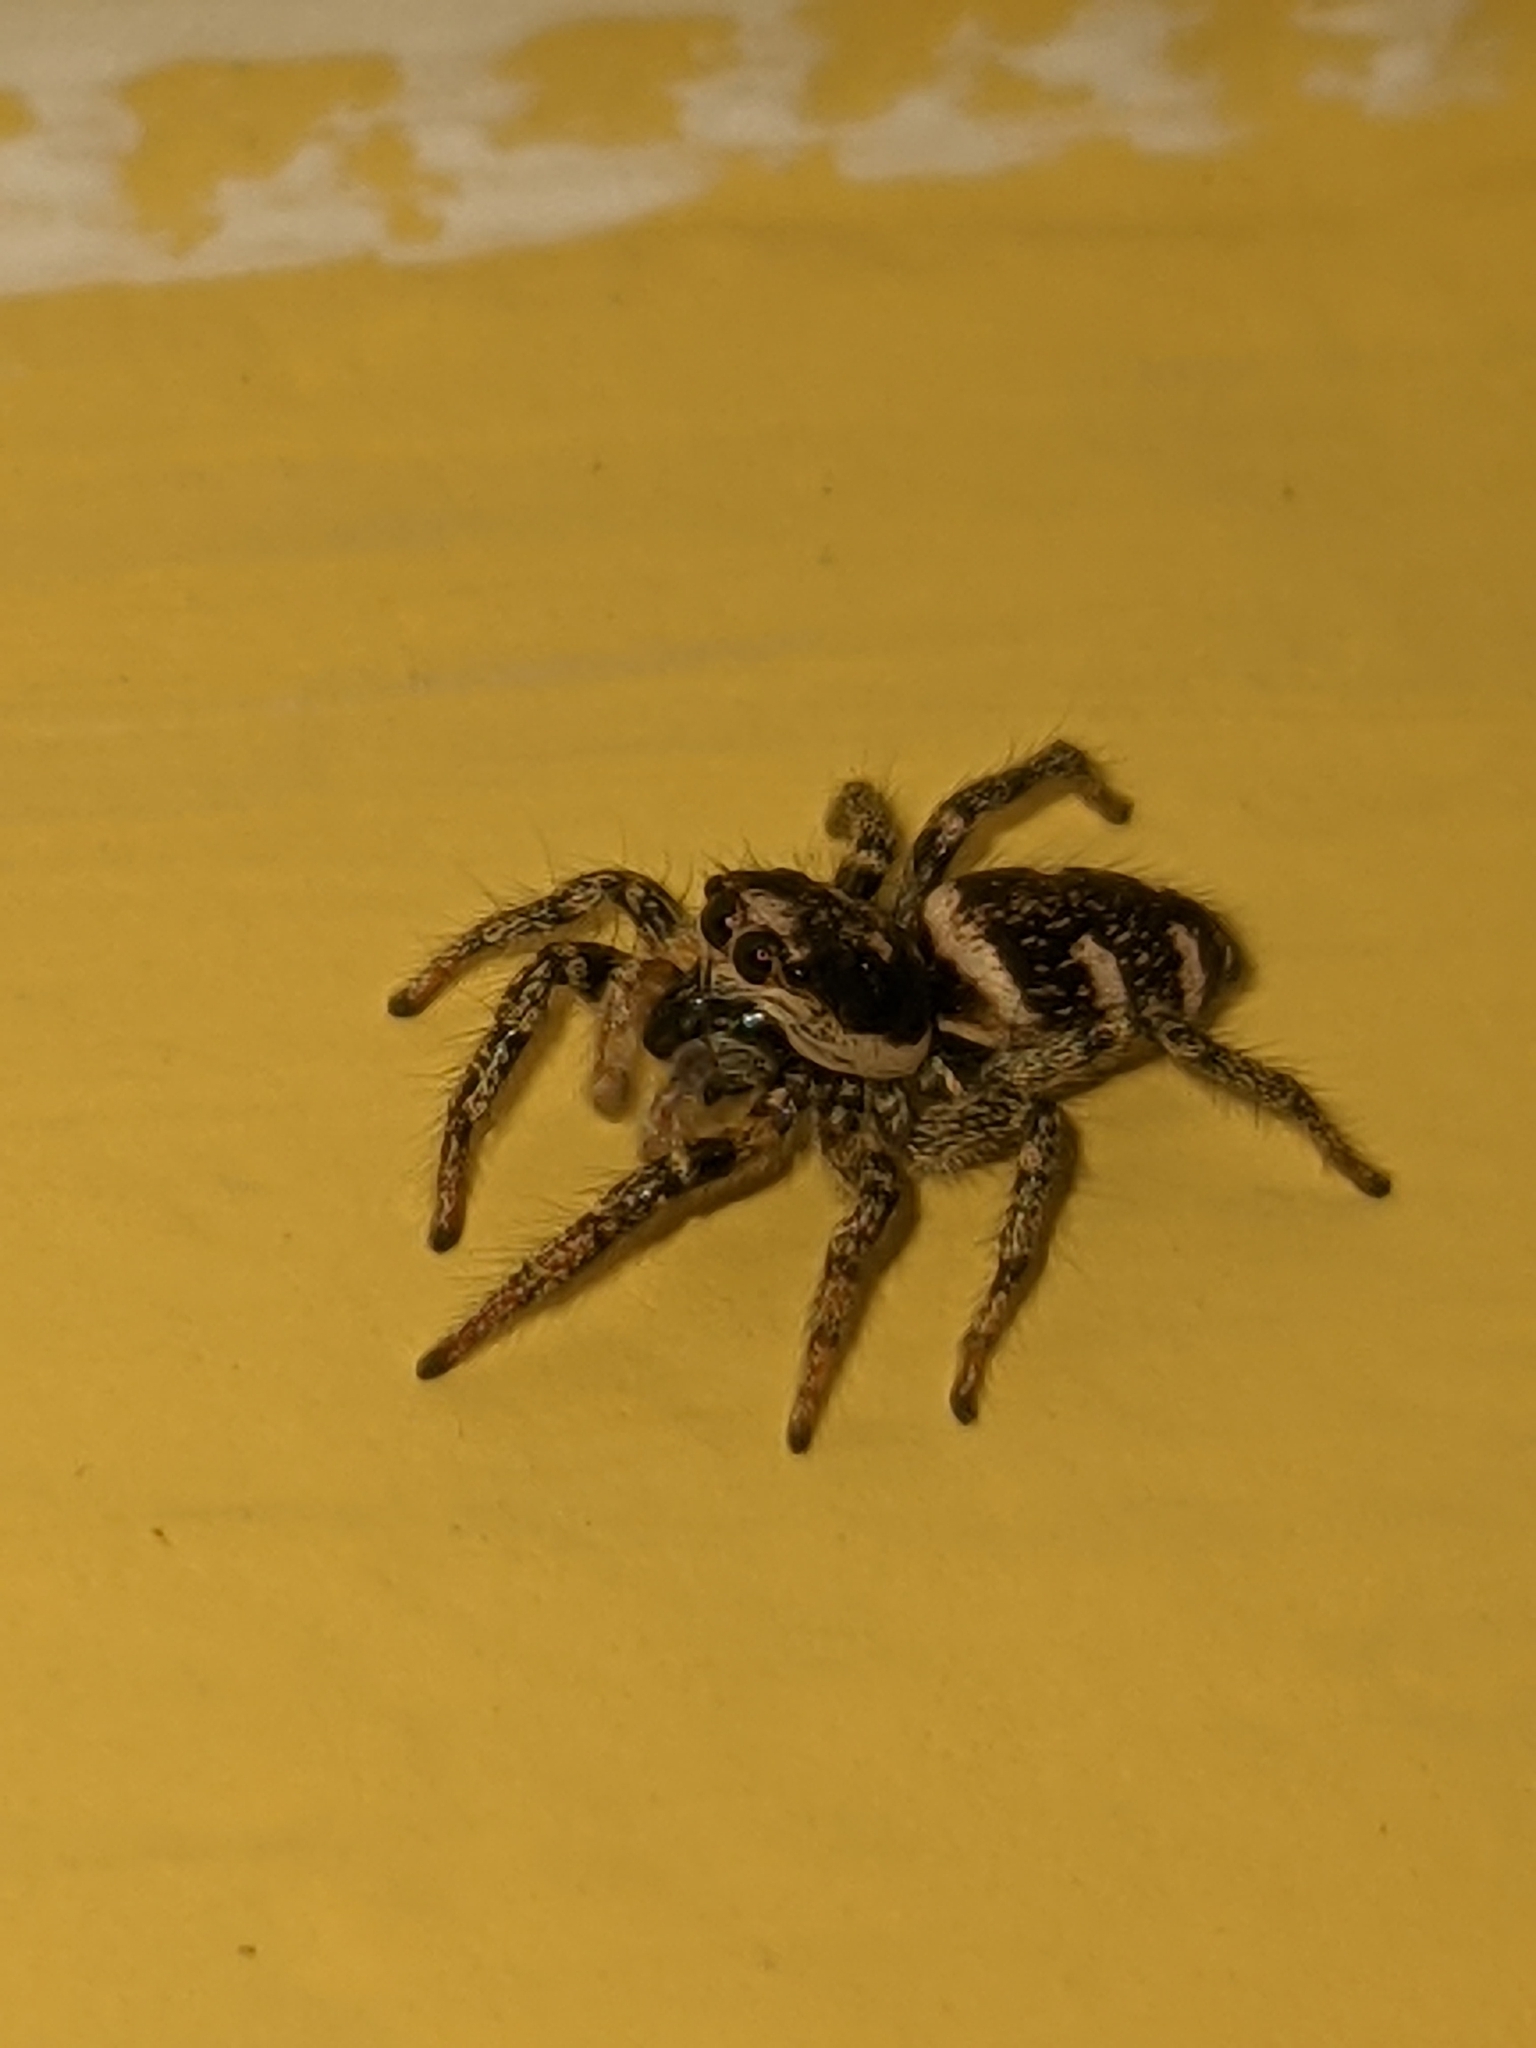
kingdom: Animalia
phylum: Arthropoda
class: Arachnida
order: Araneae
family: Salticidae
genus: Salticus
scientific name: Salticus scenicus
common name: Zebra jumper
